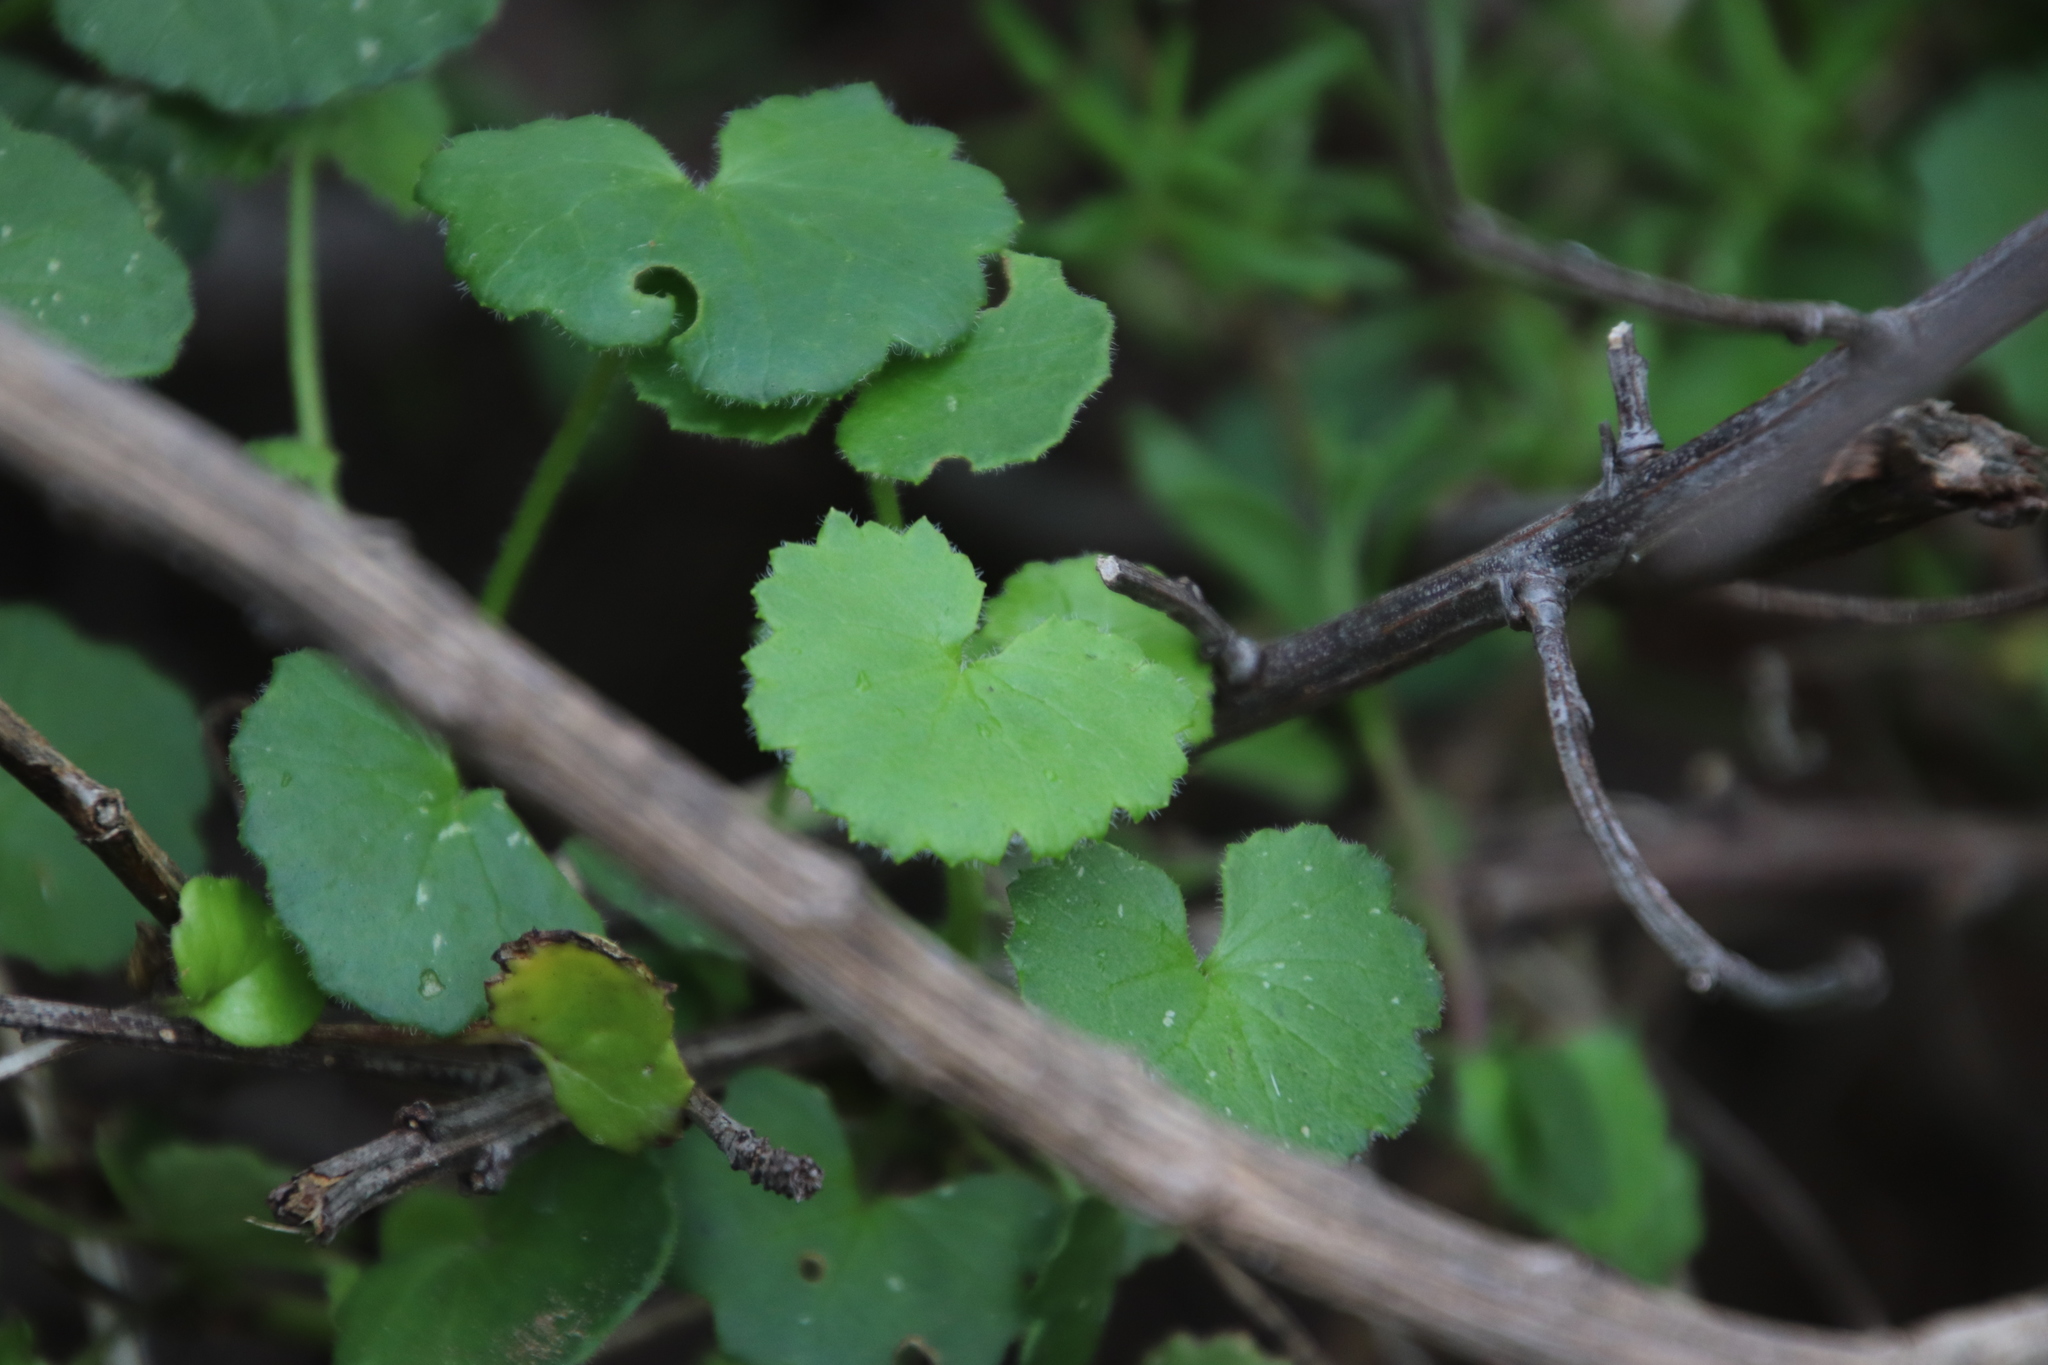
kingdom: Plantae
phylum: Tracheophyta
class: Magnoliopsida
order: Asterales
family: Asteraceae
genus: Cineraria
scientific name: Cineraria geifolia
